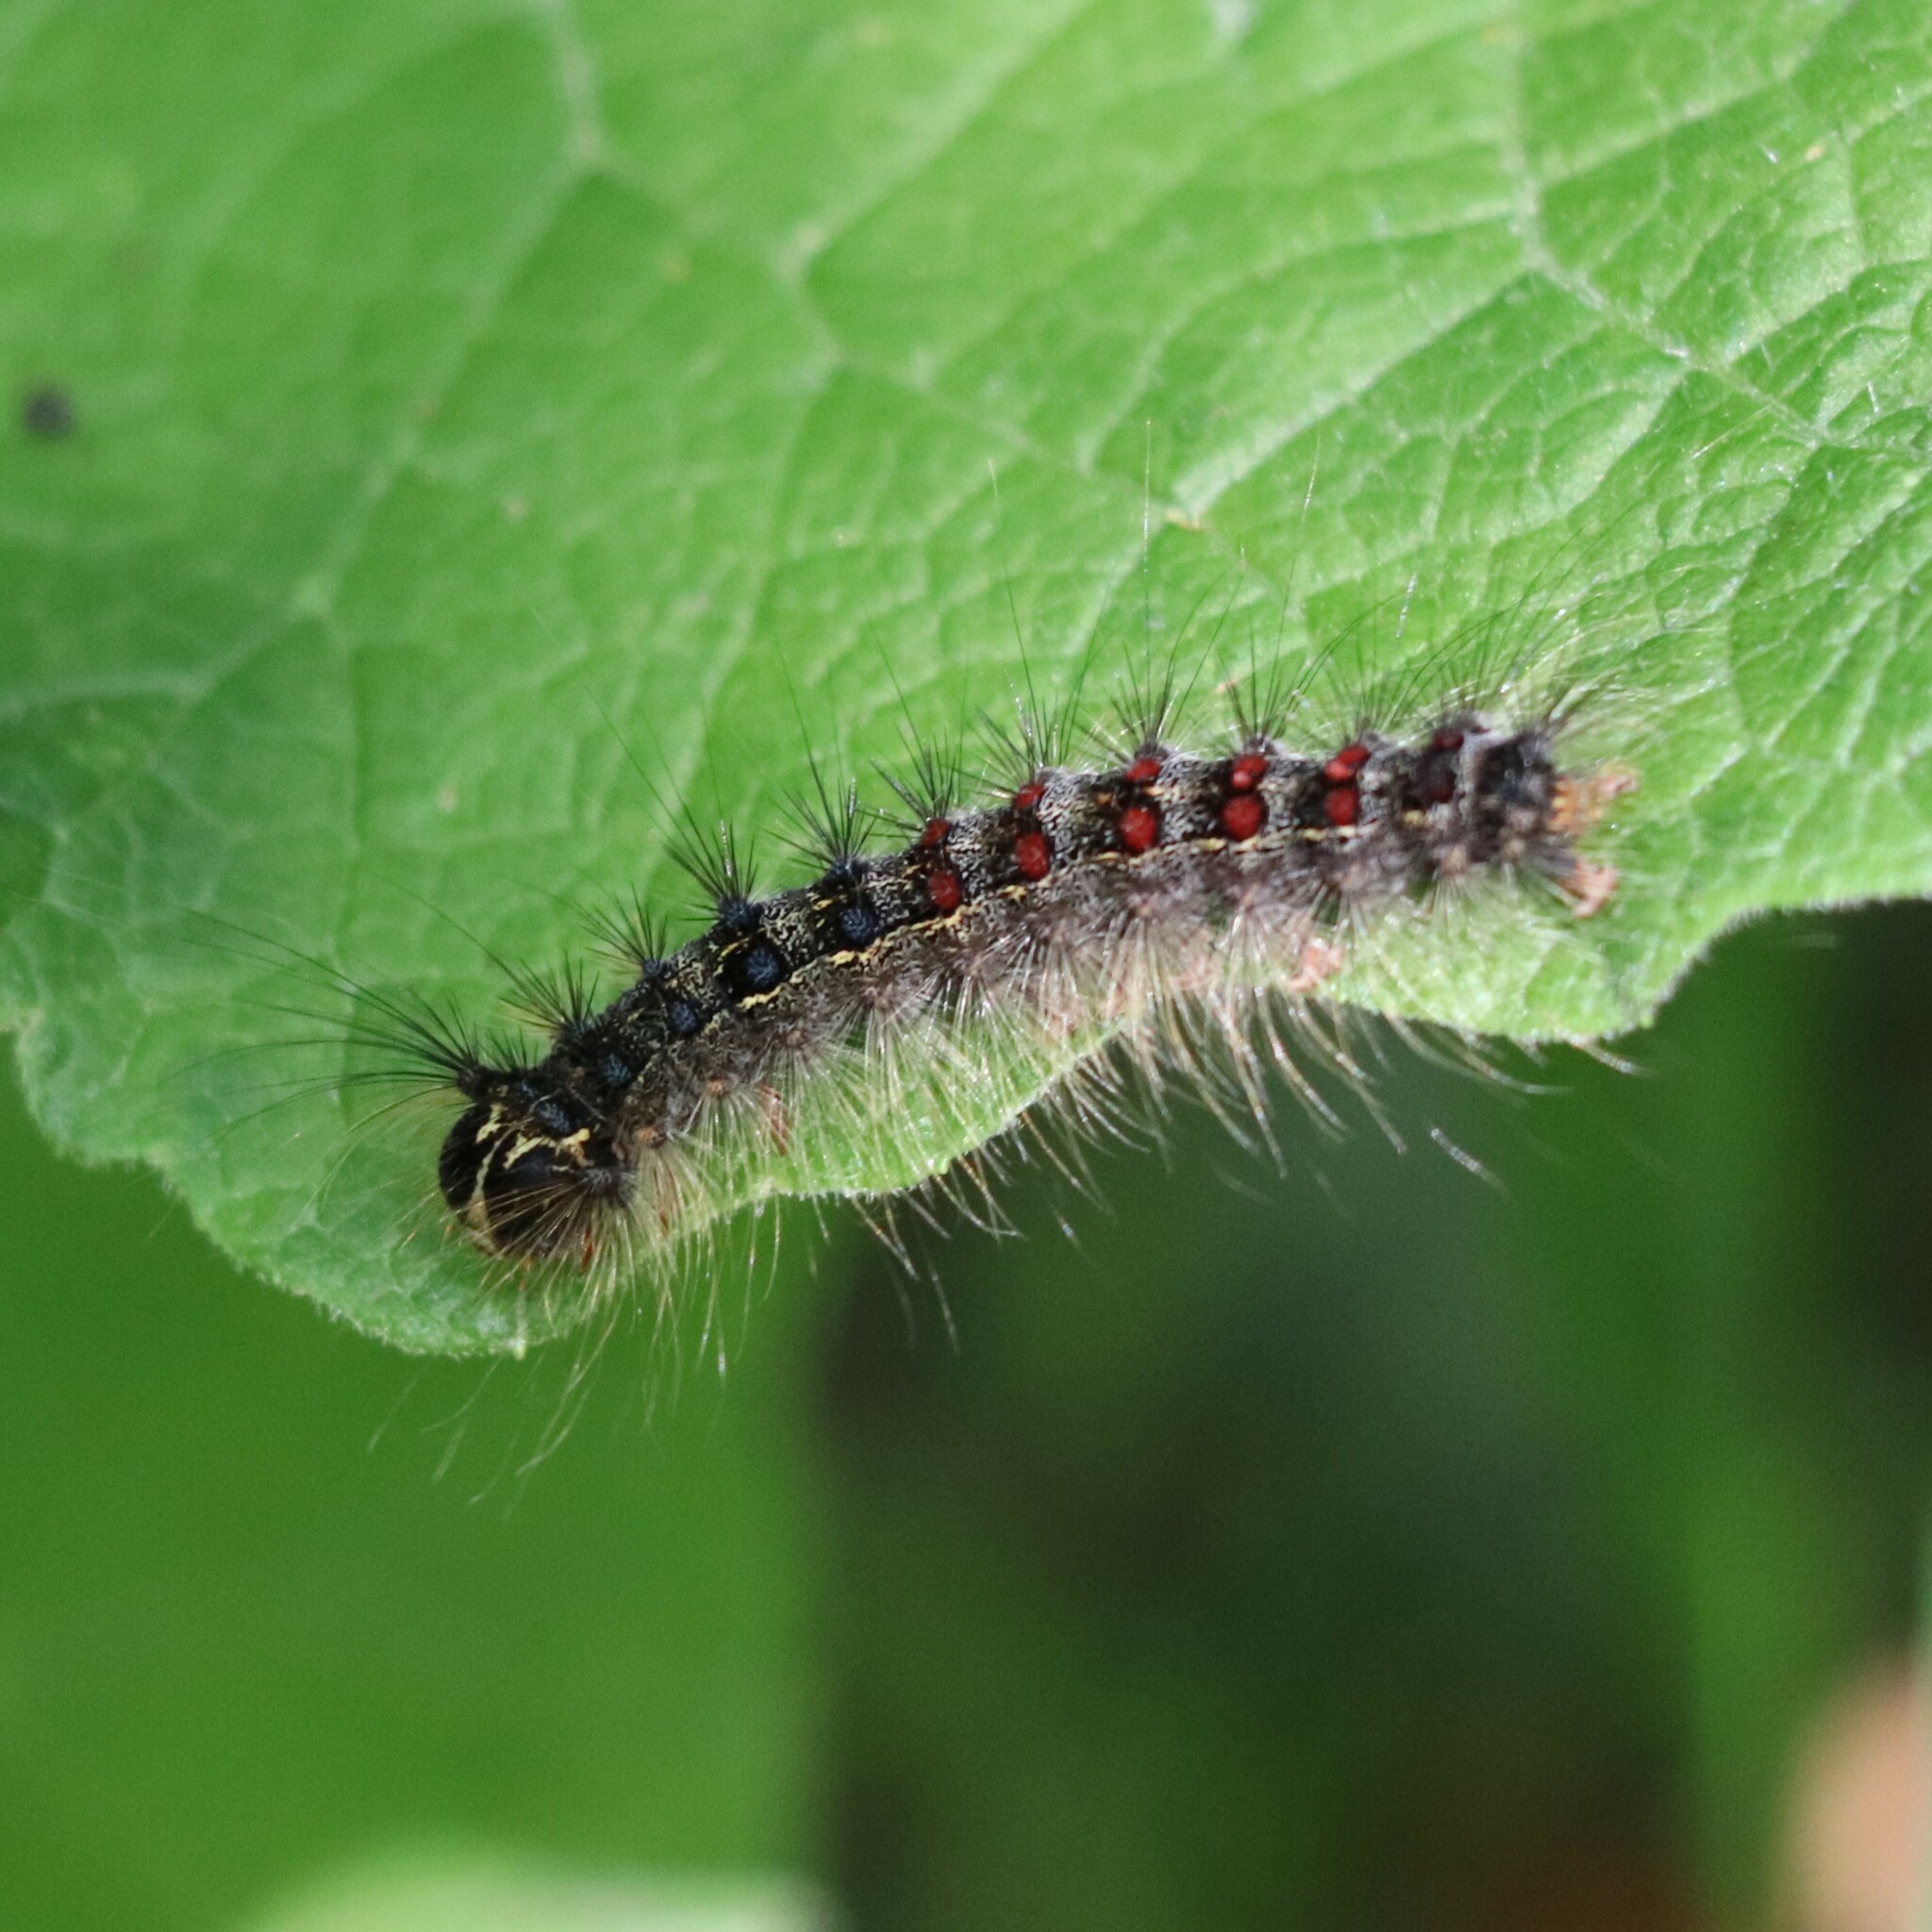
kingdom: Animalia
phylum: Arthropoda
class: Insecta
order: Lepidoptera
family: Erebidae
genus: Lymantria
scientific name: Lymantria dispar
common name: Gypsy moth
